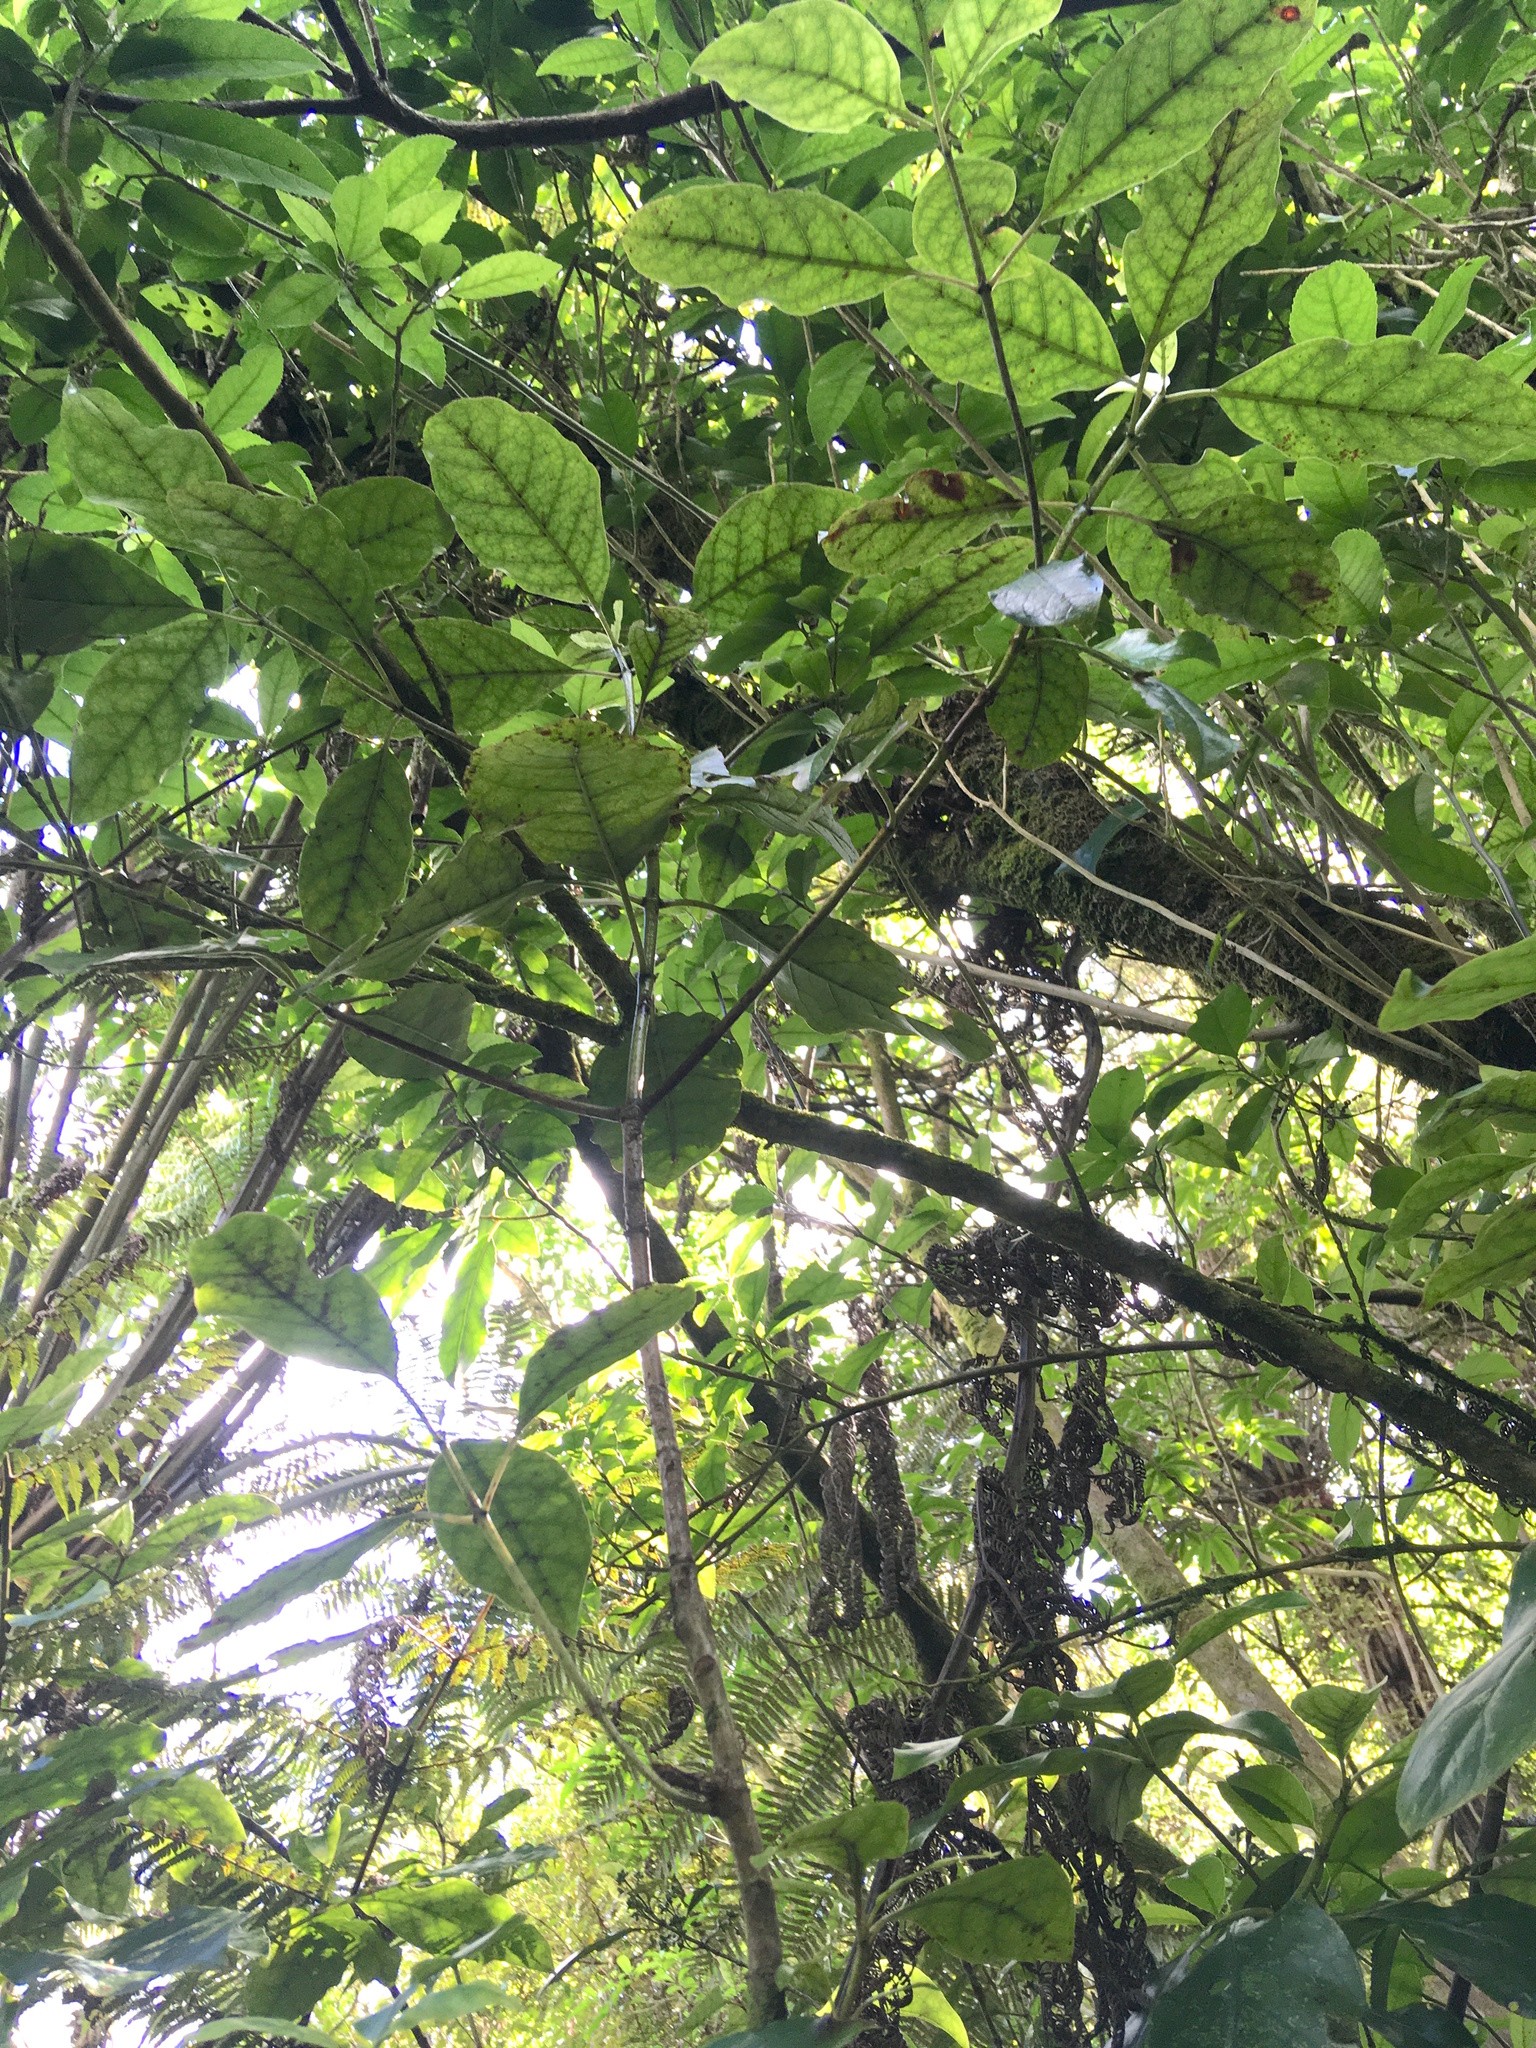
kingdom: Plantae
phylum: Tracheophyta
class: Magnoliopsida
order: Gentianales
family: Rubiaceae
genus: Coprosma
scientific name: Coprosma autumnalis
